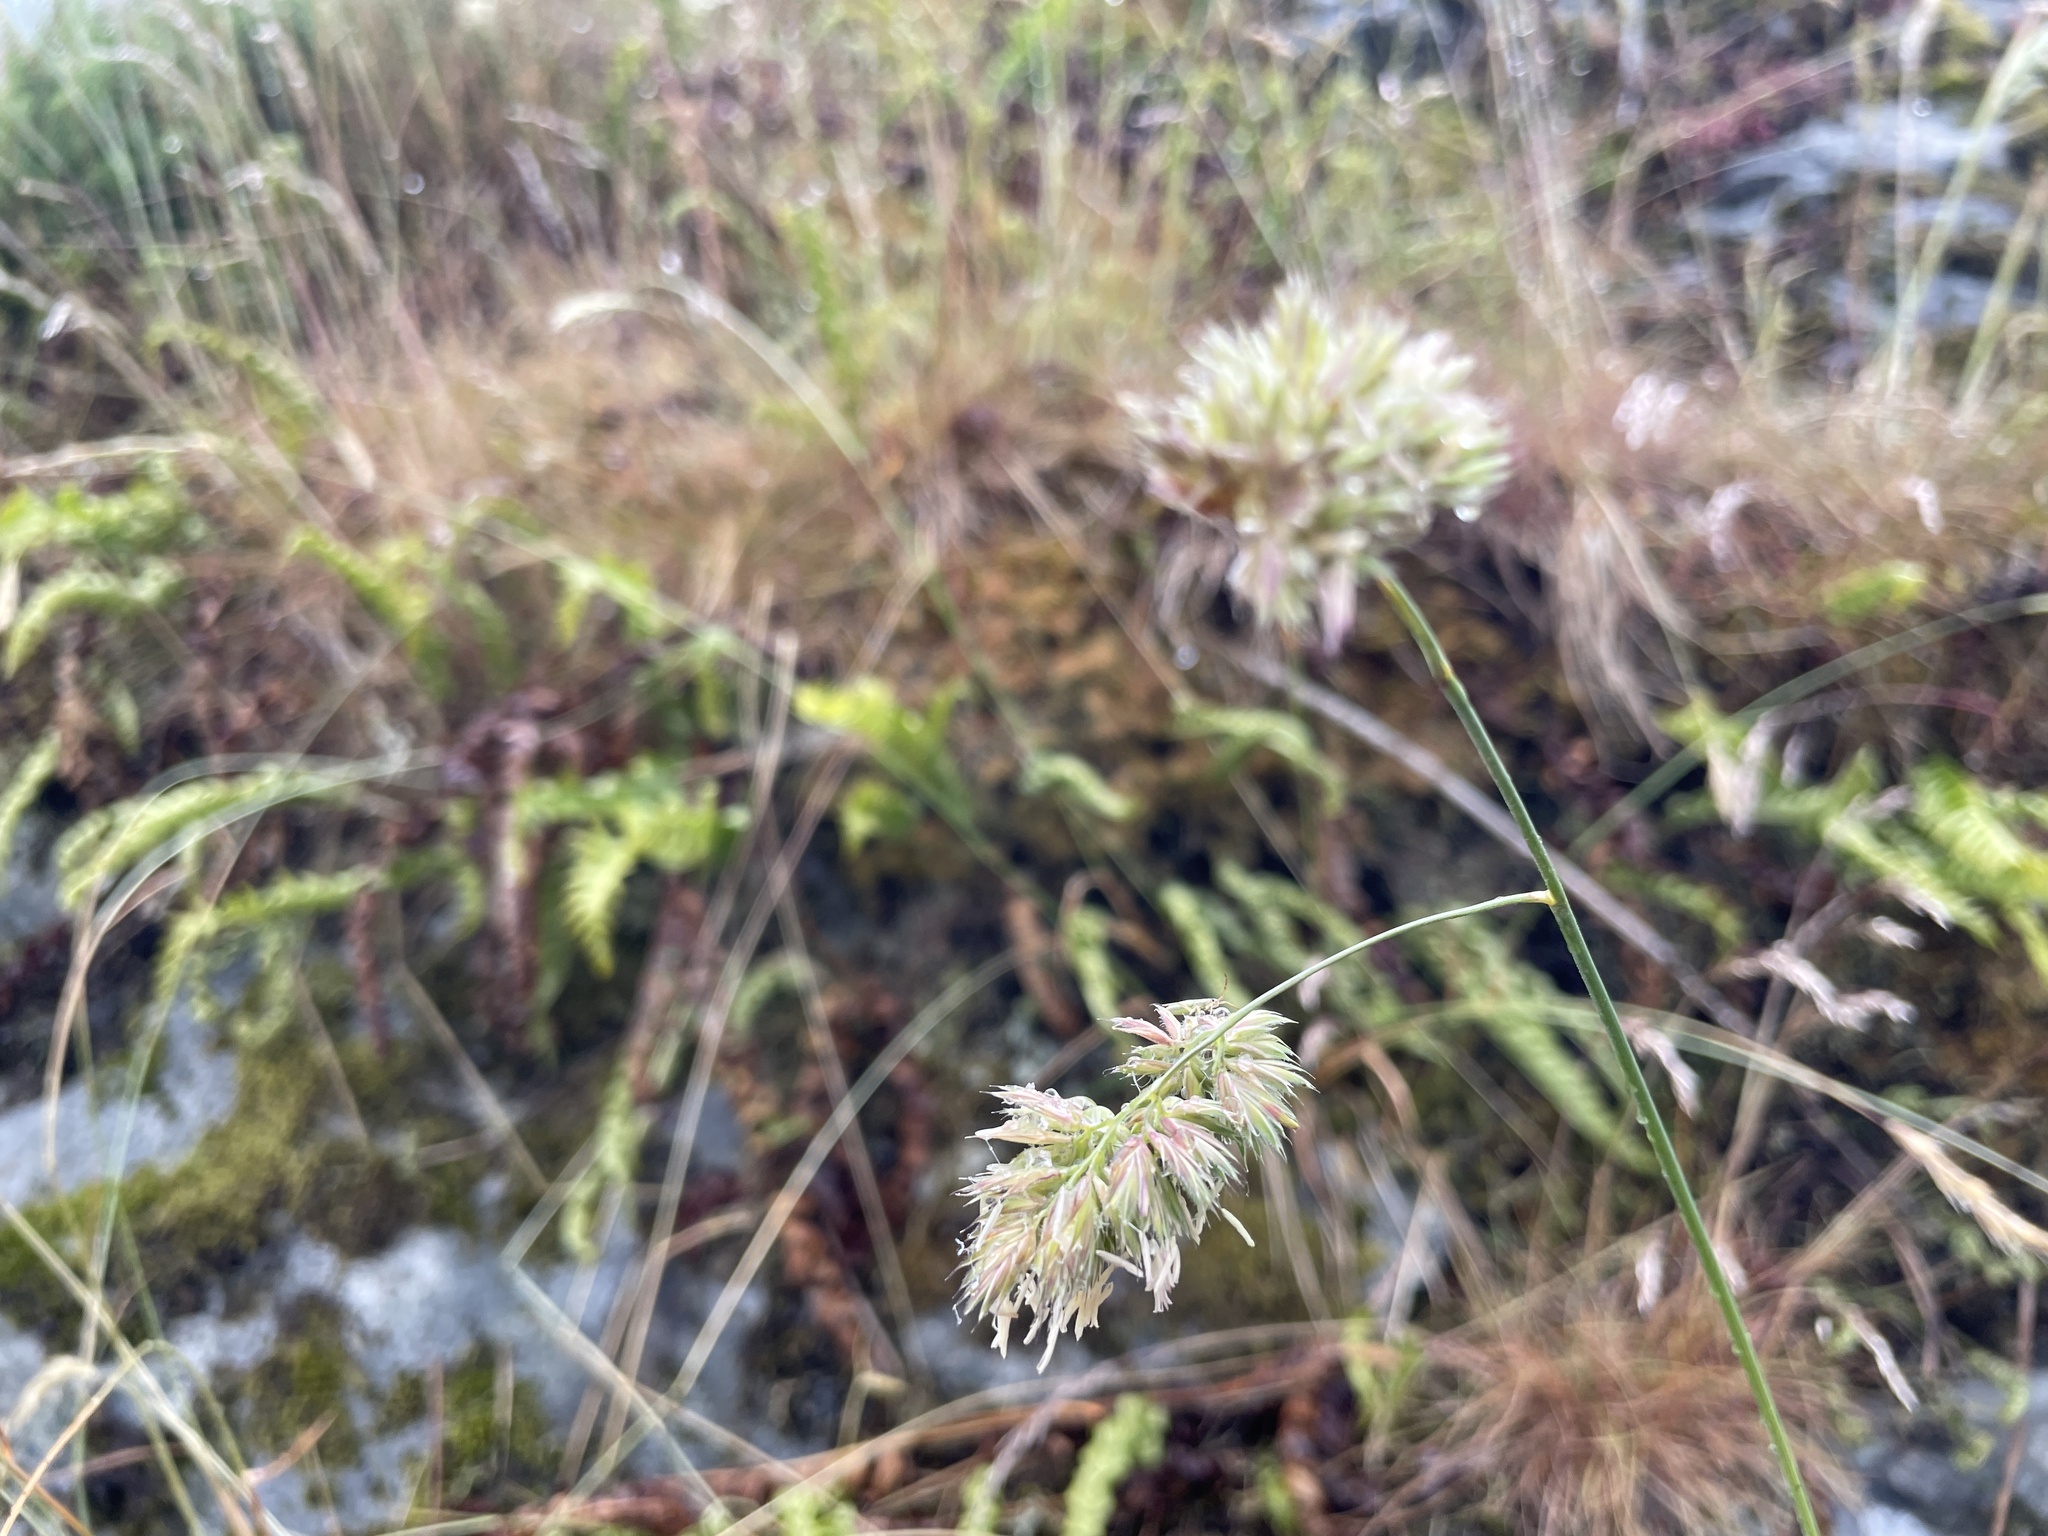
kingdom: Plantae
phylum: Tracheophyta
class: Liliopsida
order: Poales
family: Poaceae
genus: Dactylis
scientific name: Dactylis glomerata
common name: Orchardgrass
